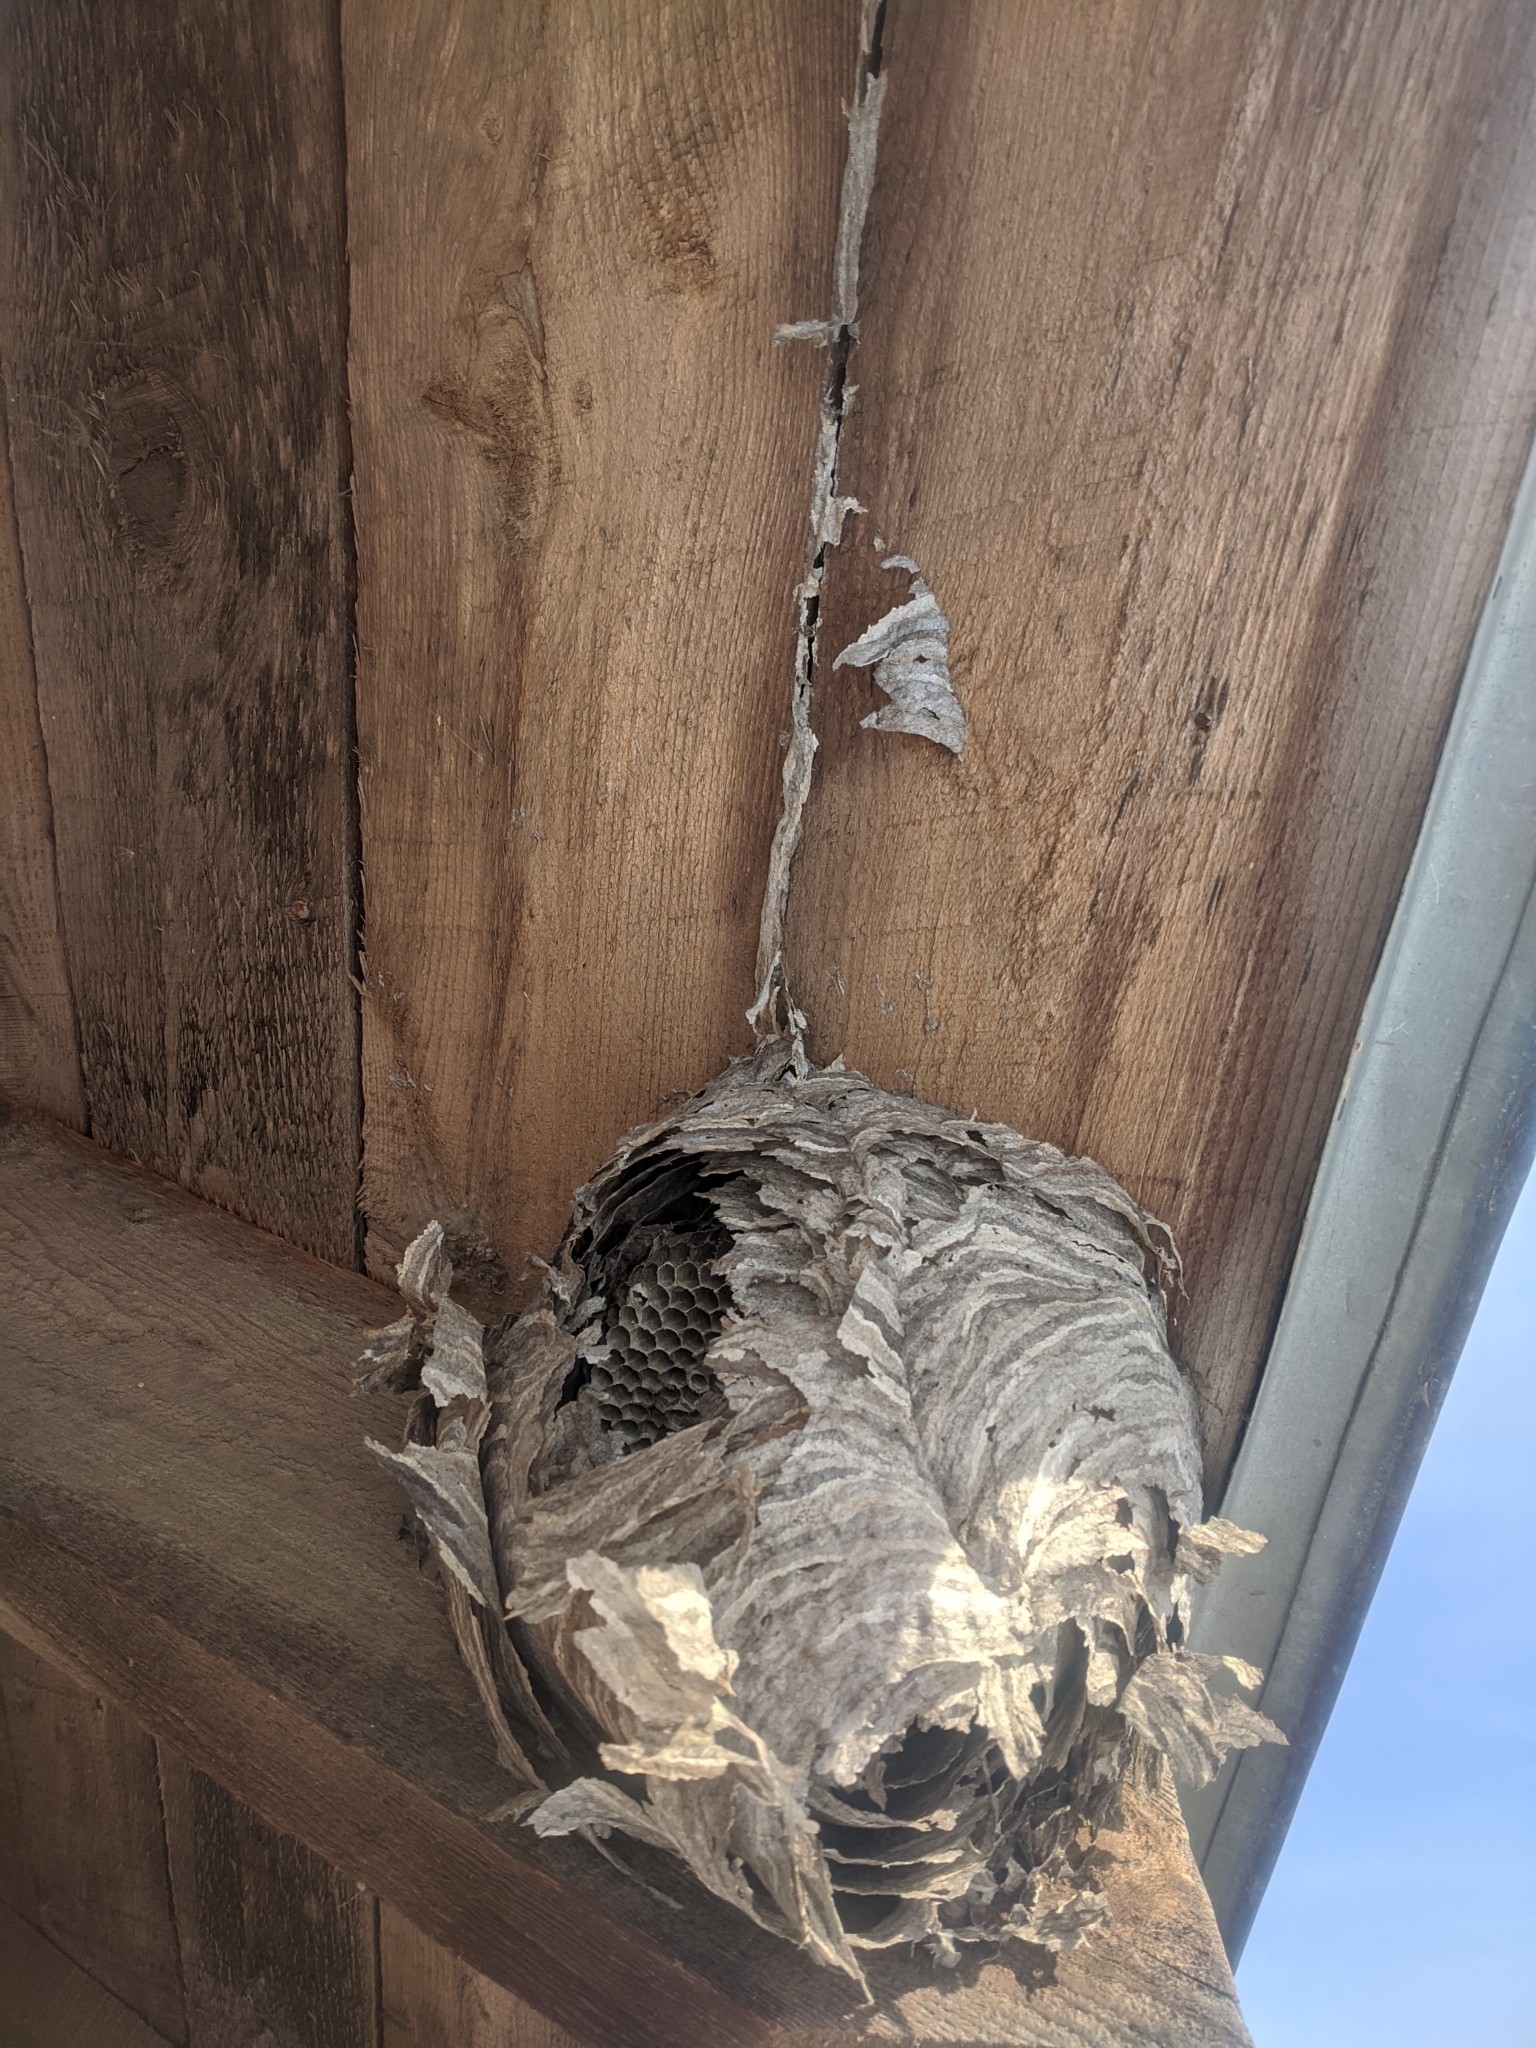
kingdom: Animalia
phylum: Arthropoda
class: Insecta
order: Hymenoptera
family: Vespidae
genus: Dolichovespula
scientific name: Dolichovespula
